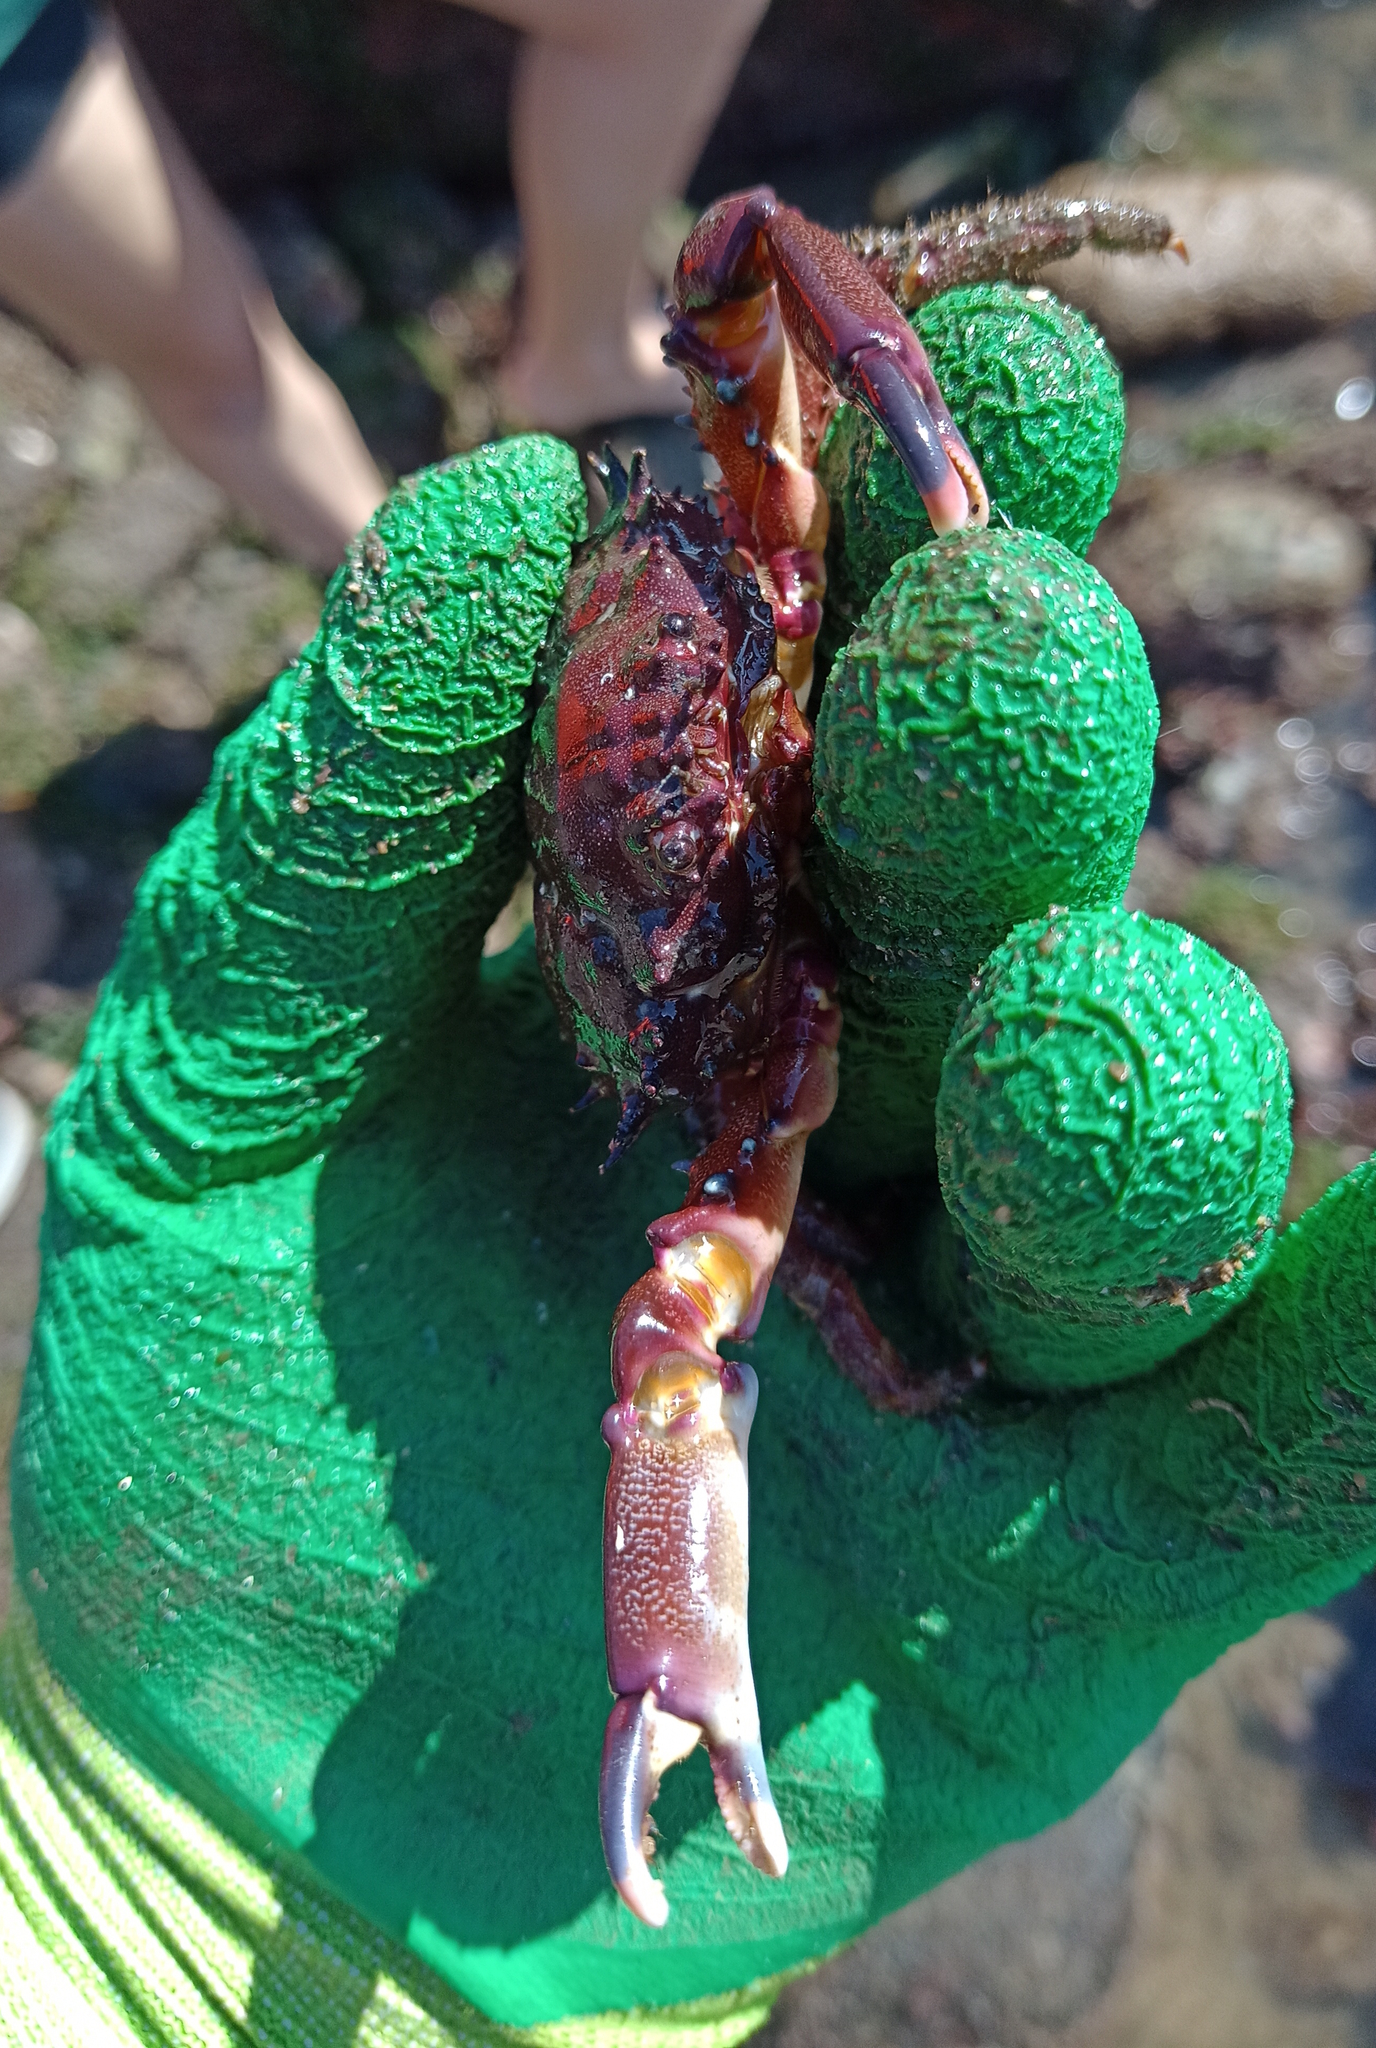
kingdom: Animalia
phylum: Arthropoda
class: Malacostraca
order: Decapoda
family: Mithracidae
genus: Mithrax
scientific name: Mithrax hispidus
